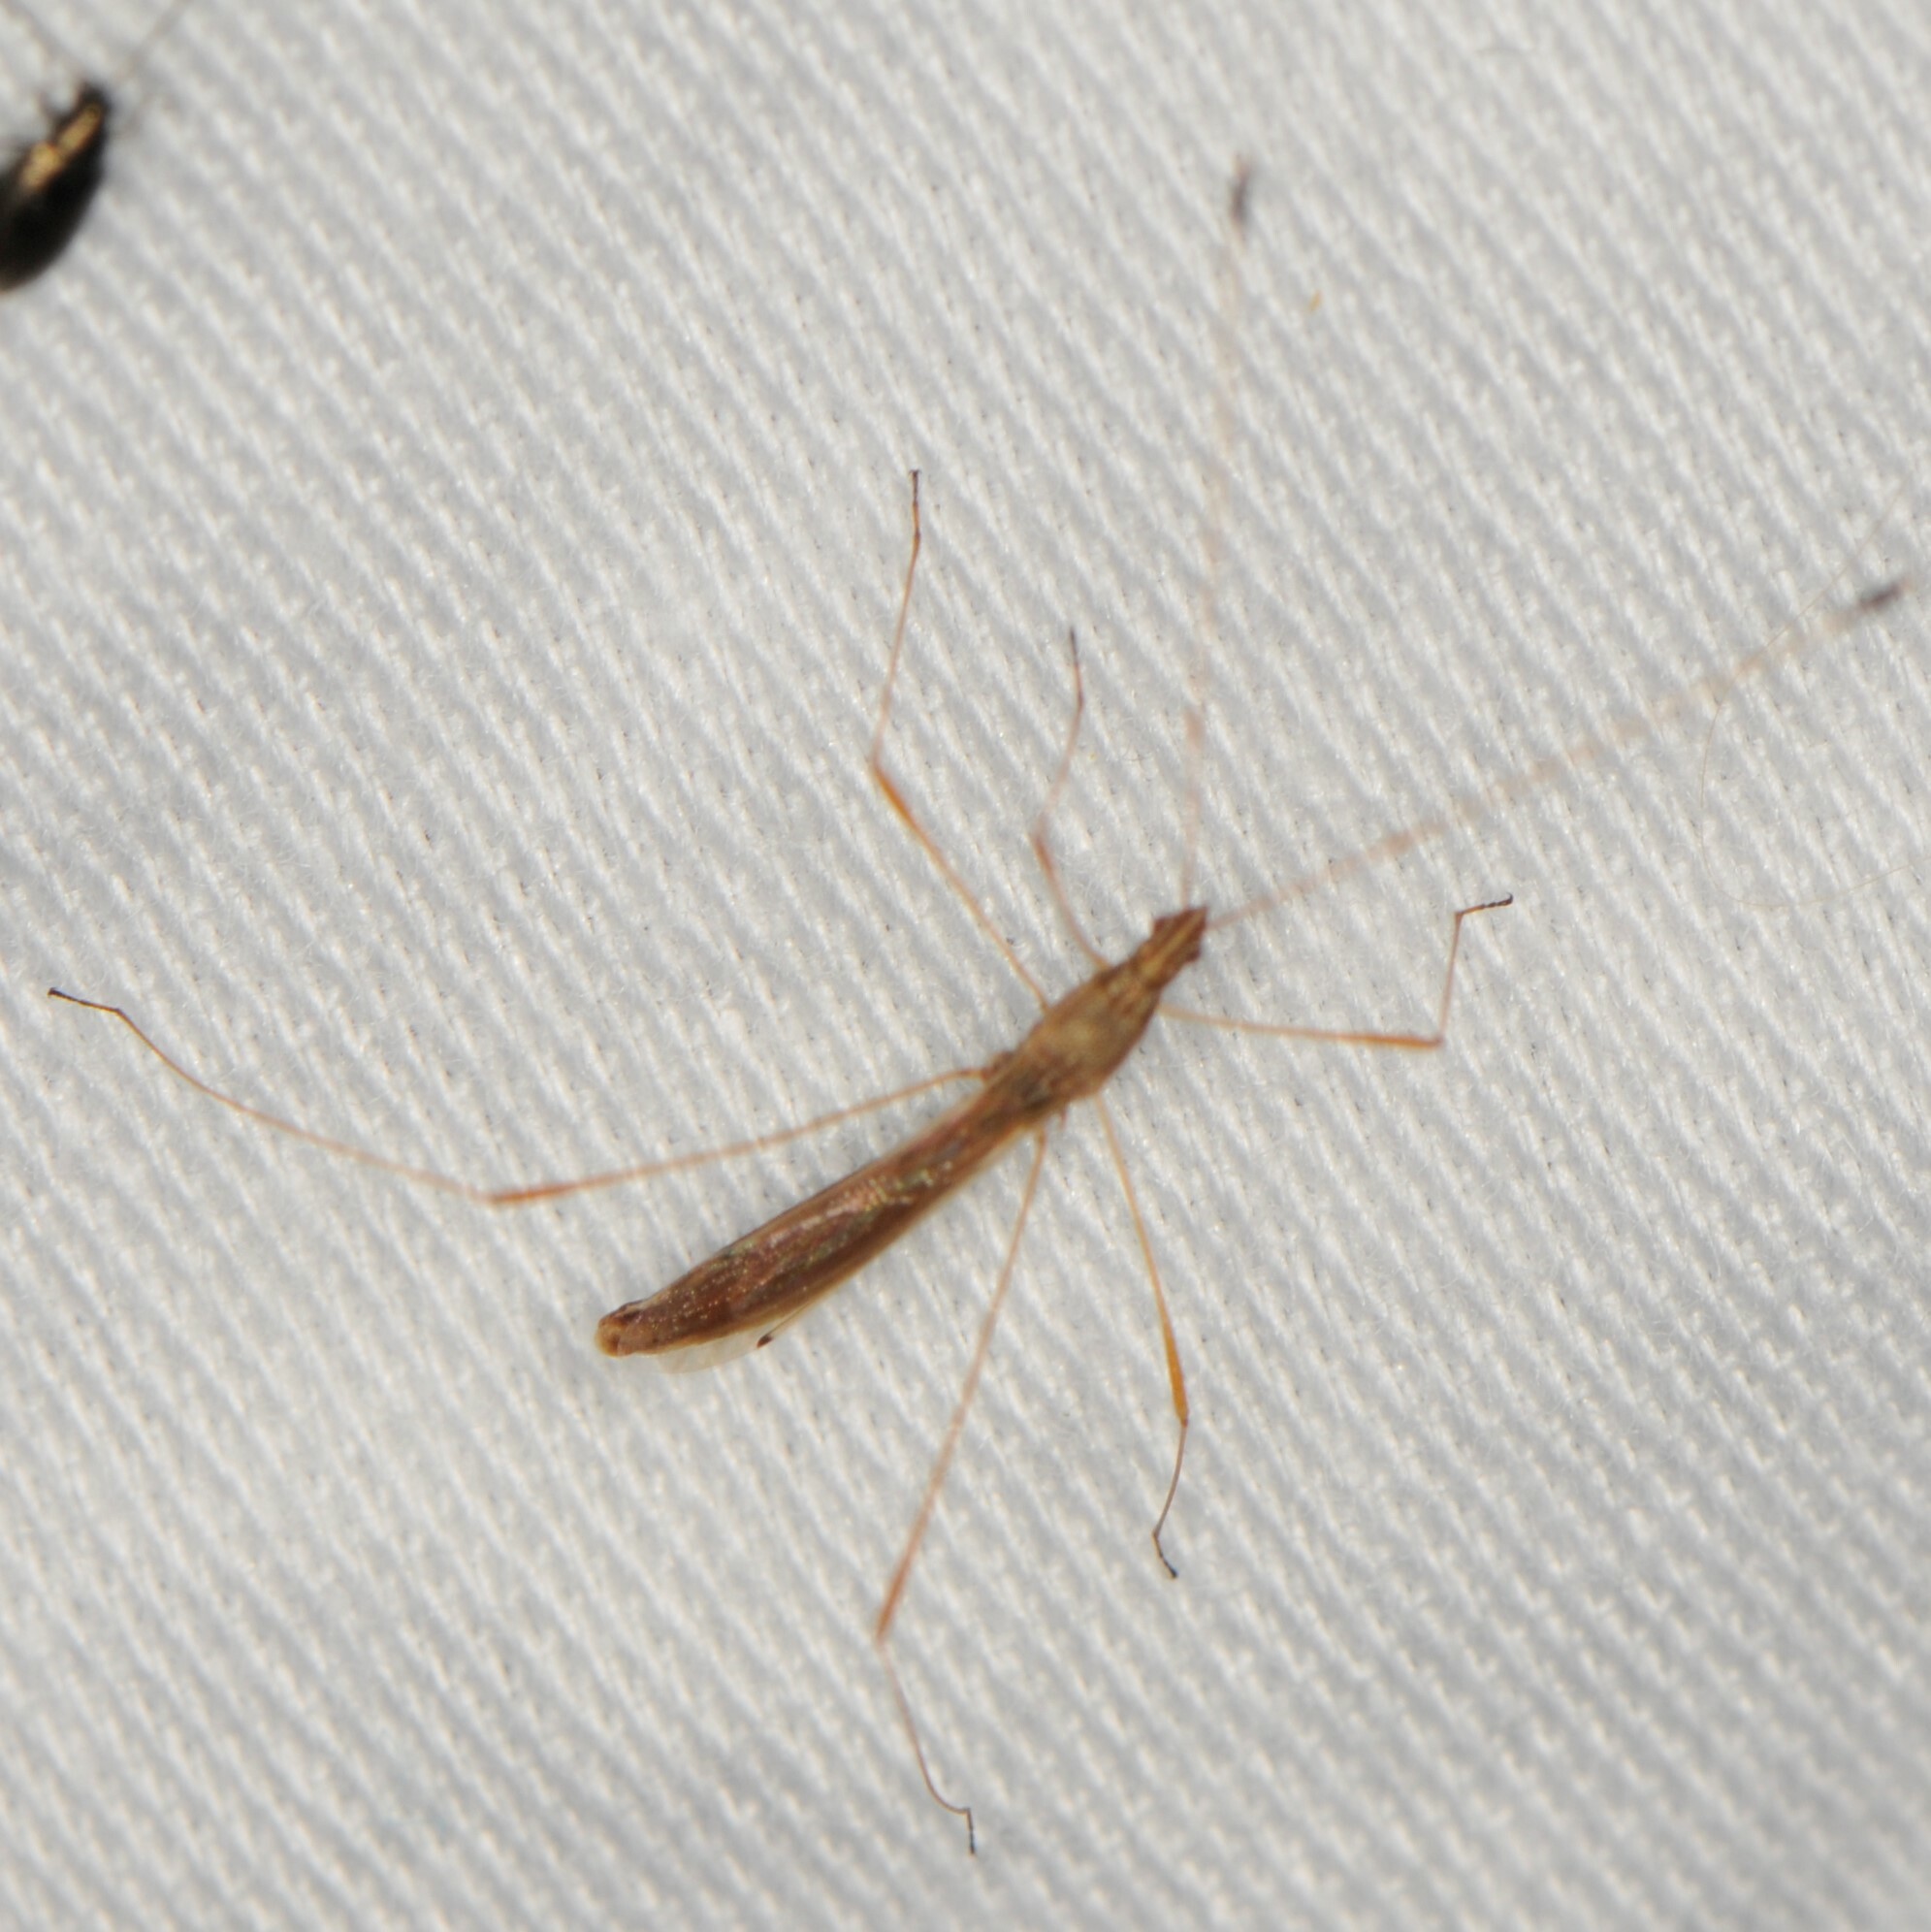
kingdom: Animalia
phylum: Arthropoda
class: Insecta
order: Hemiptera
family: Berytidae
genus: Jalysus
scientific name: Jalysus
